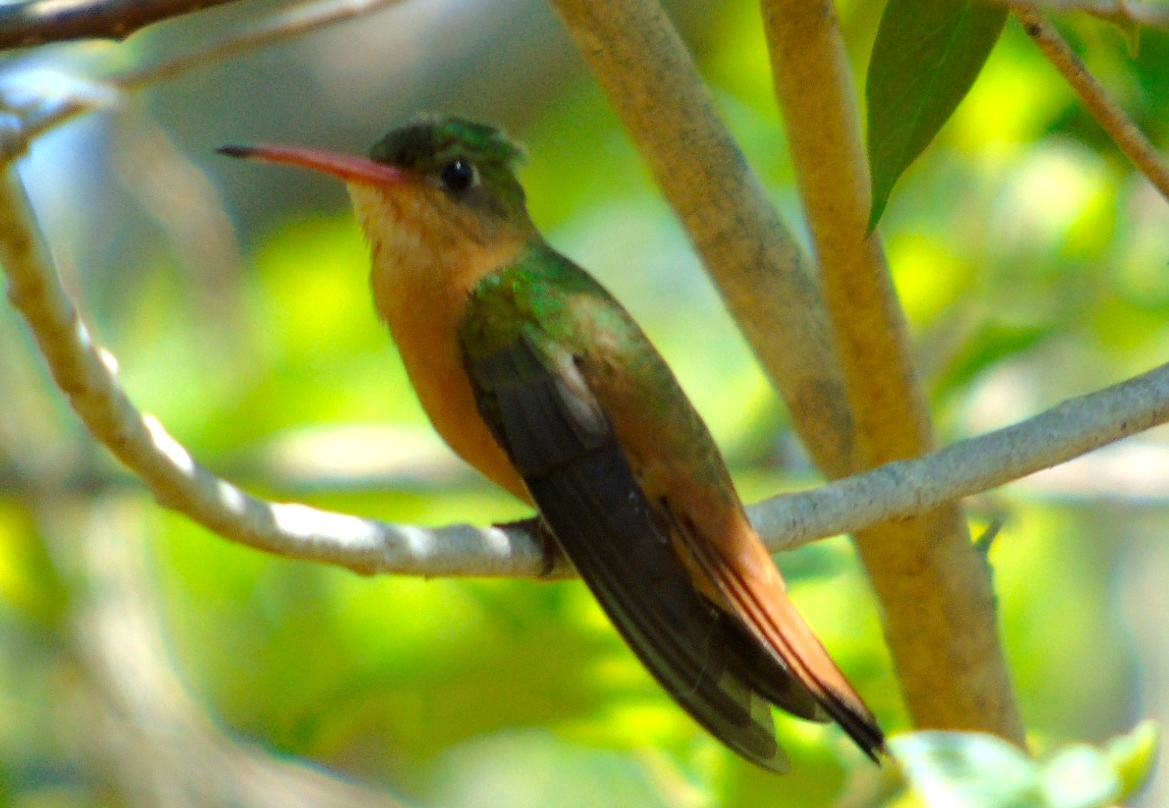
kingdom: Animalia
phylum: Chordata
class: Aves
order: Apodiformes
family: Trochilidae
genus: Amazilia
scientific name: Amazilia rutila
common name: Cinnamon hummingbird
